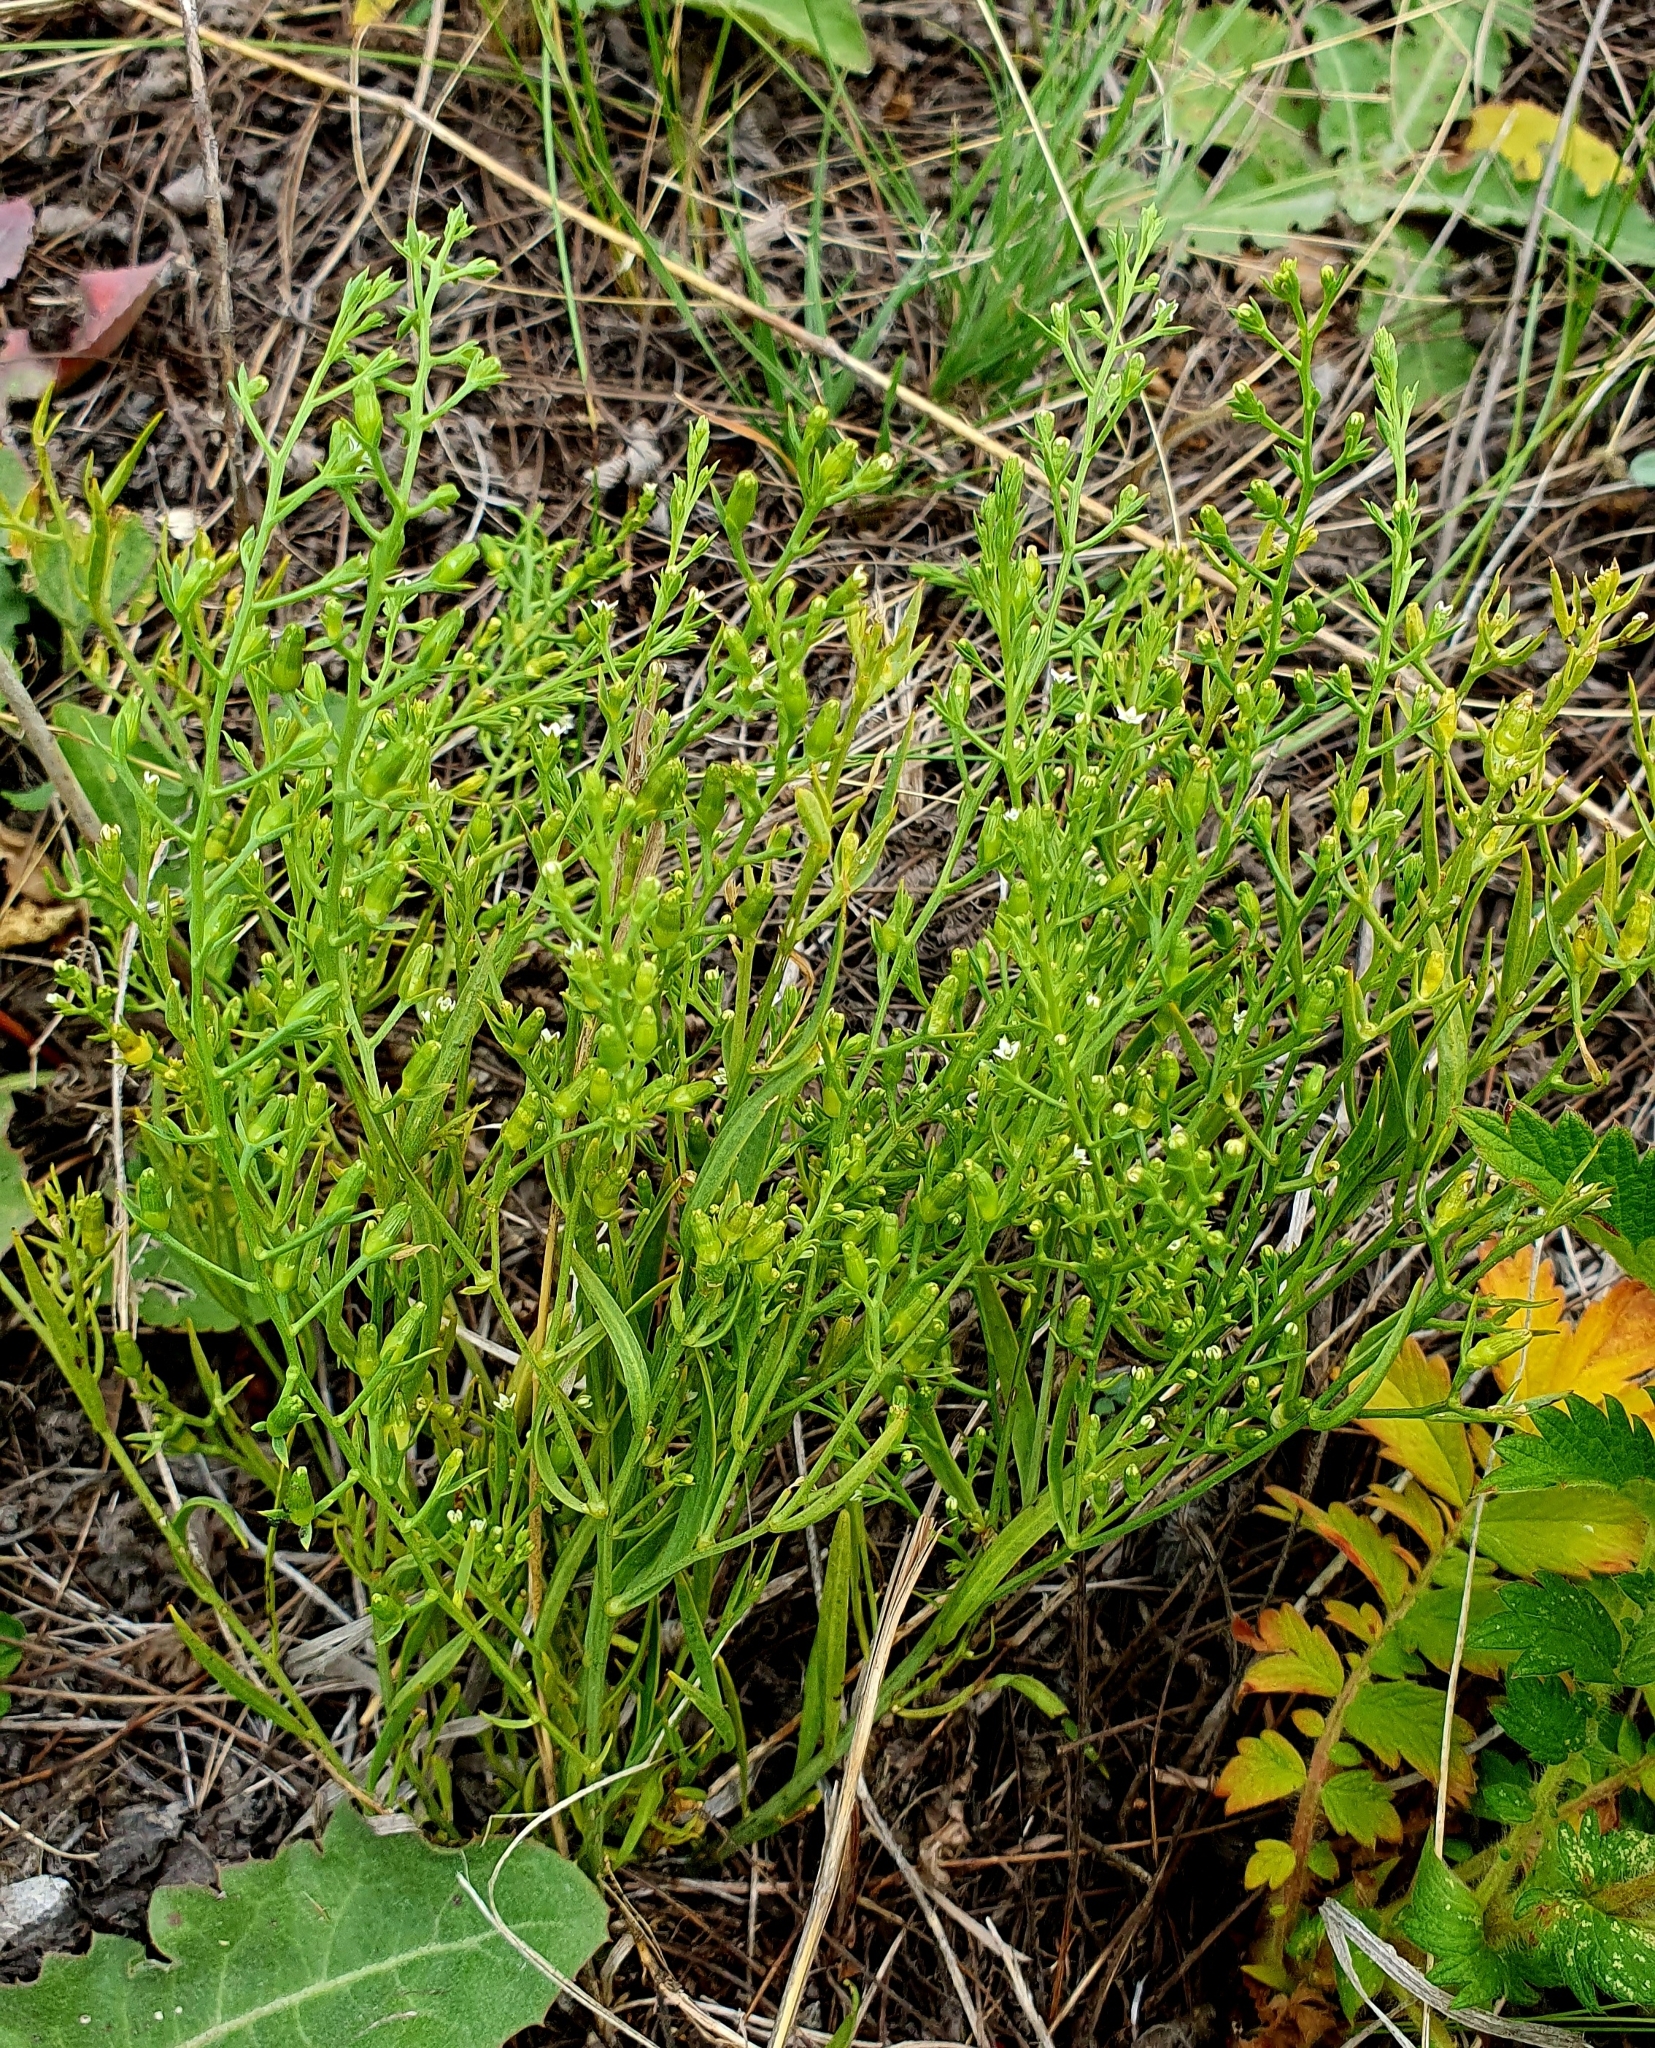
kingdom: Plantae
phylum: Tracheophyta
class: Magnoliopsida
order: Santalales
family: Thesiaceae
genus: Thesium
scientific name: Thesium ramosum
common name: Field thesium
